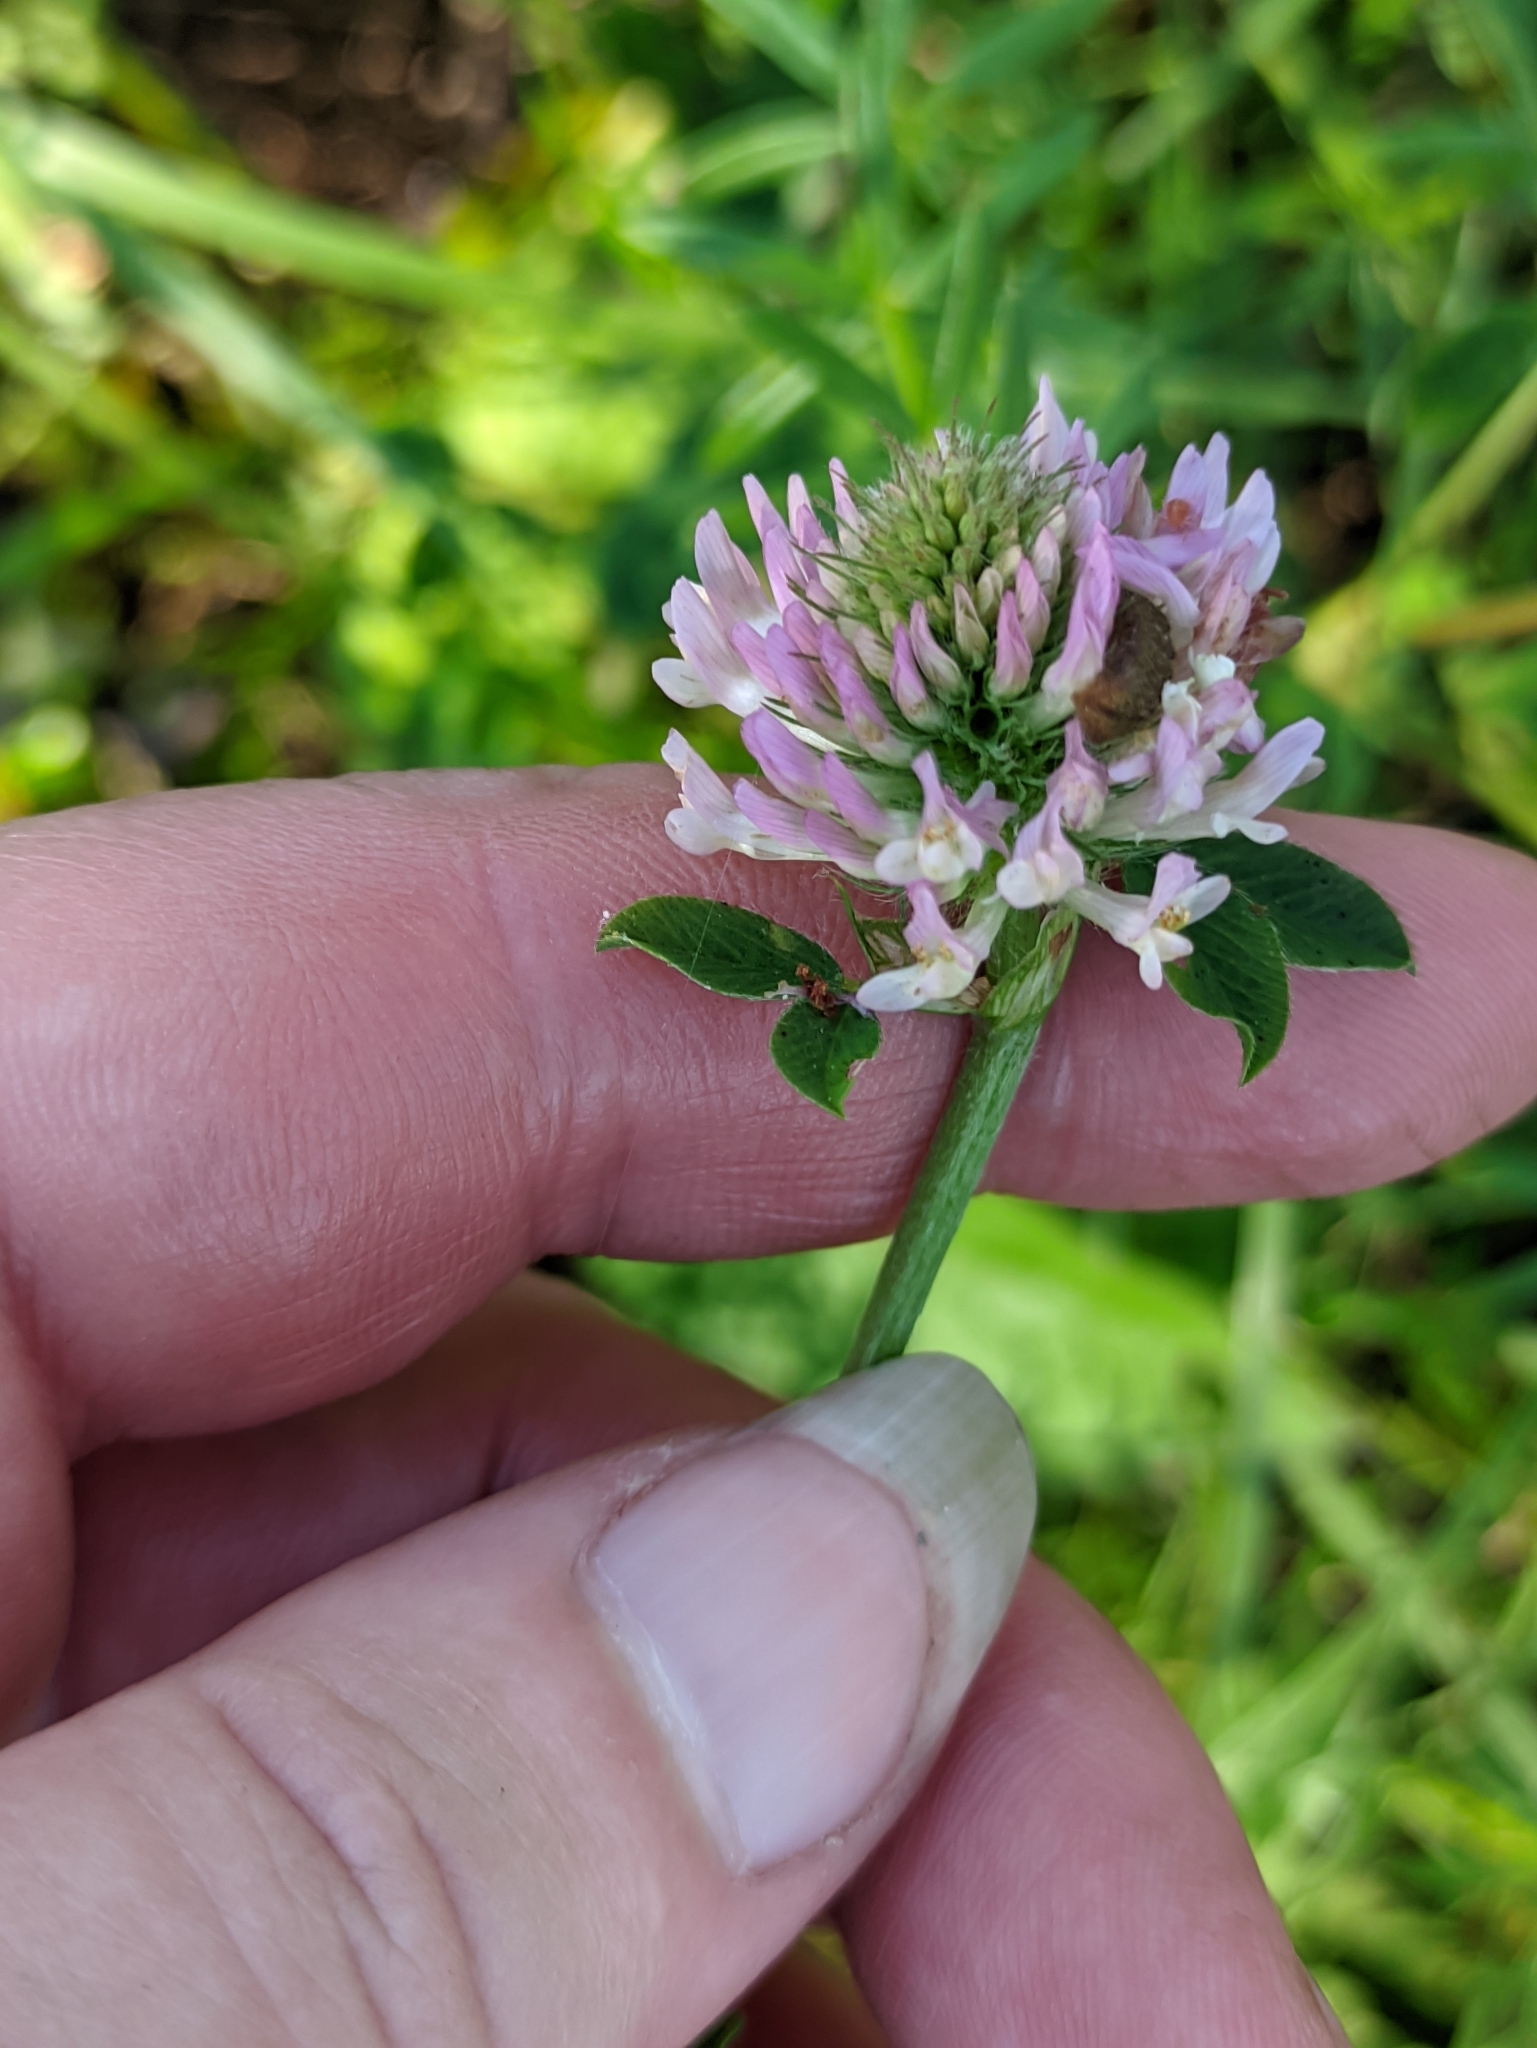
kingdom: Plantae
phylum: Tracheophyta
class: Magnoliopsida
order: Fabales
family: Fabaceae
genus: Trifolium
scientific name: Trifolium pratense
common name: Red clover
